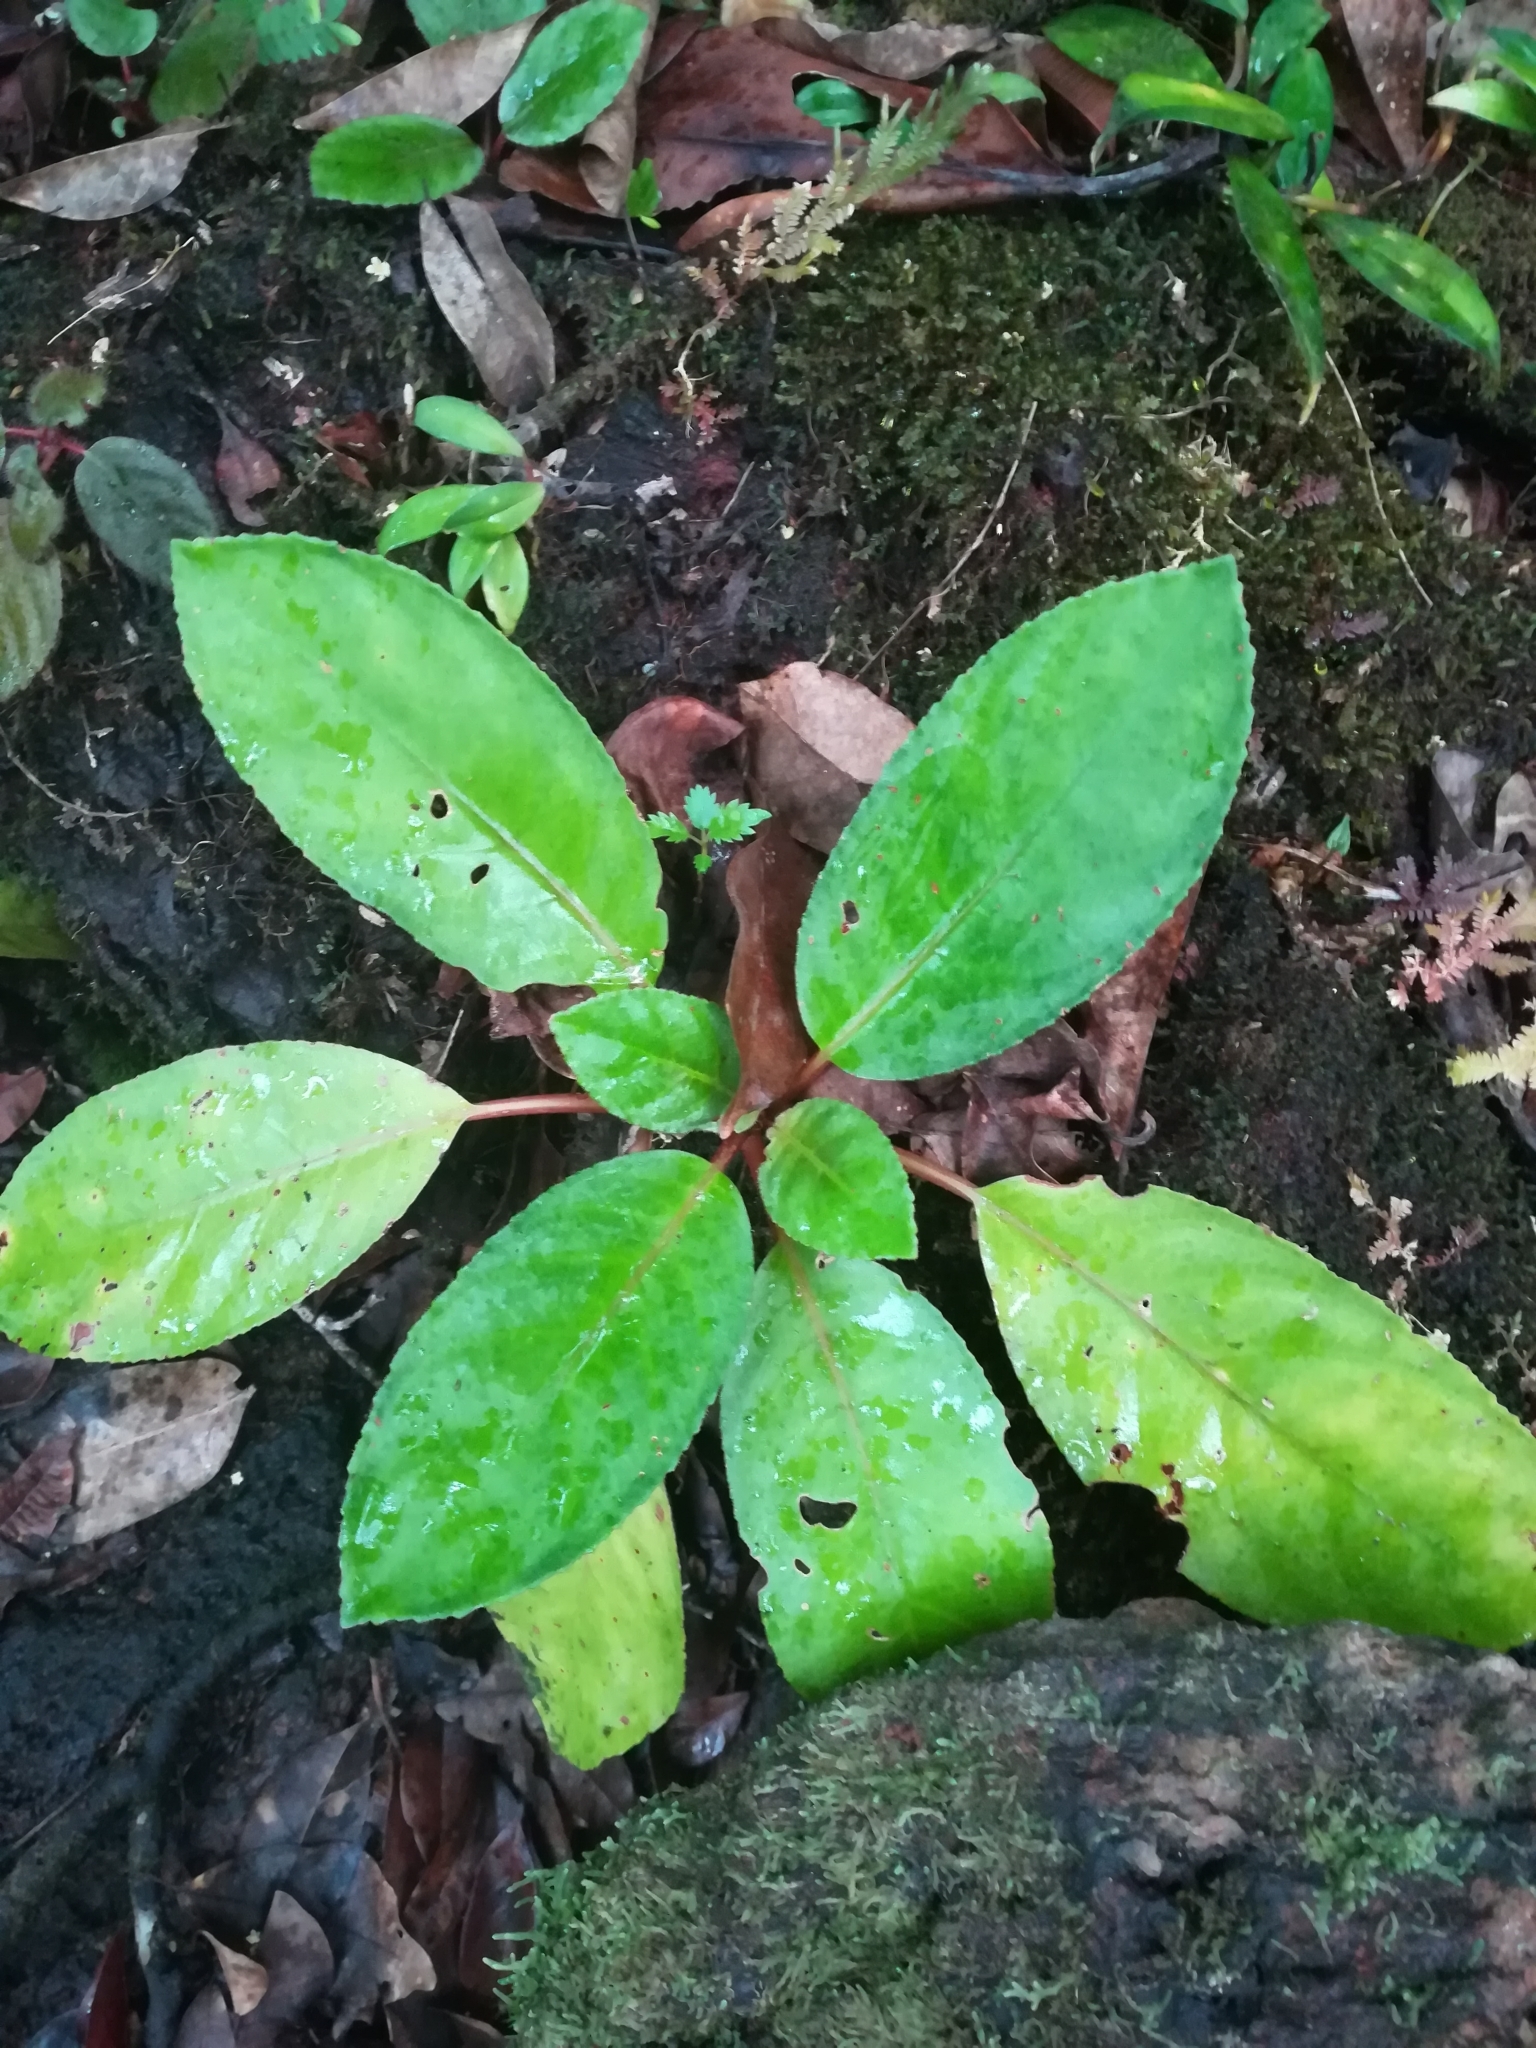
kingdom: Plantae
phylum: Tracheophyta
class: Magnoliopsida
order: Lamiales
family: Gesneriaceae
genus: Centrosolenia
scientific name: Centrosolenia densa
